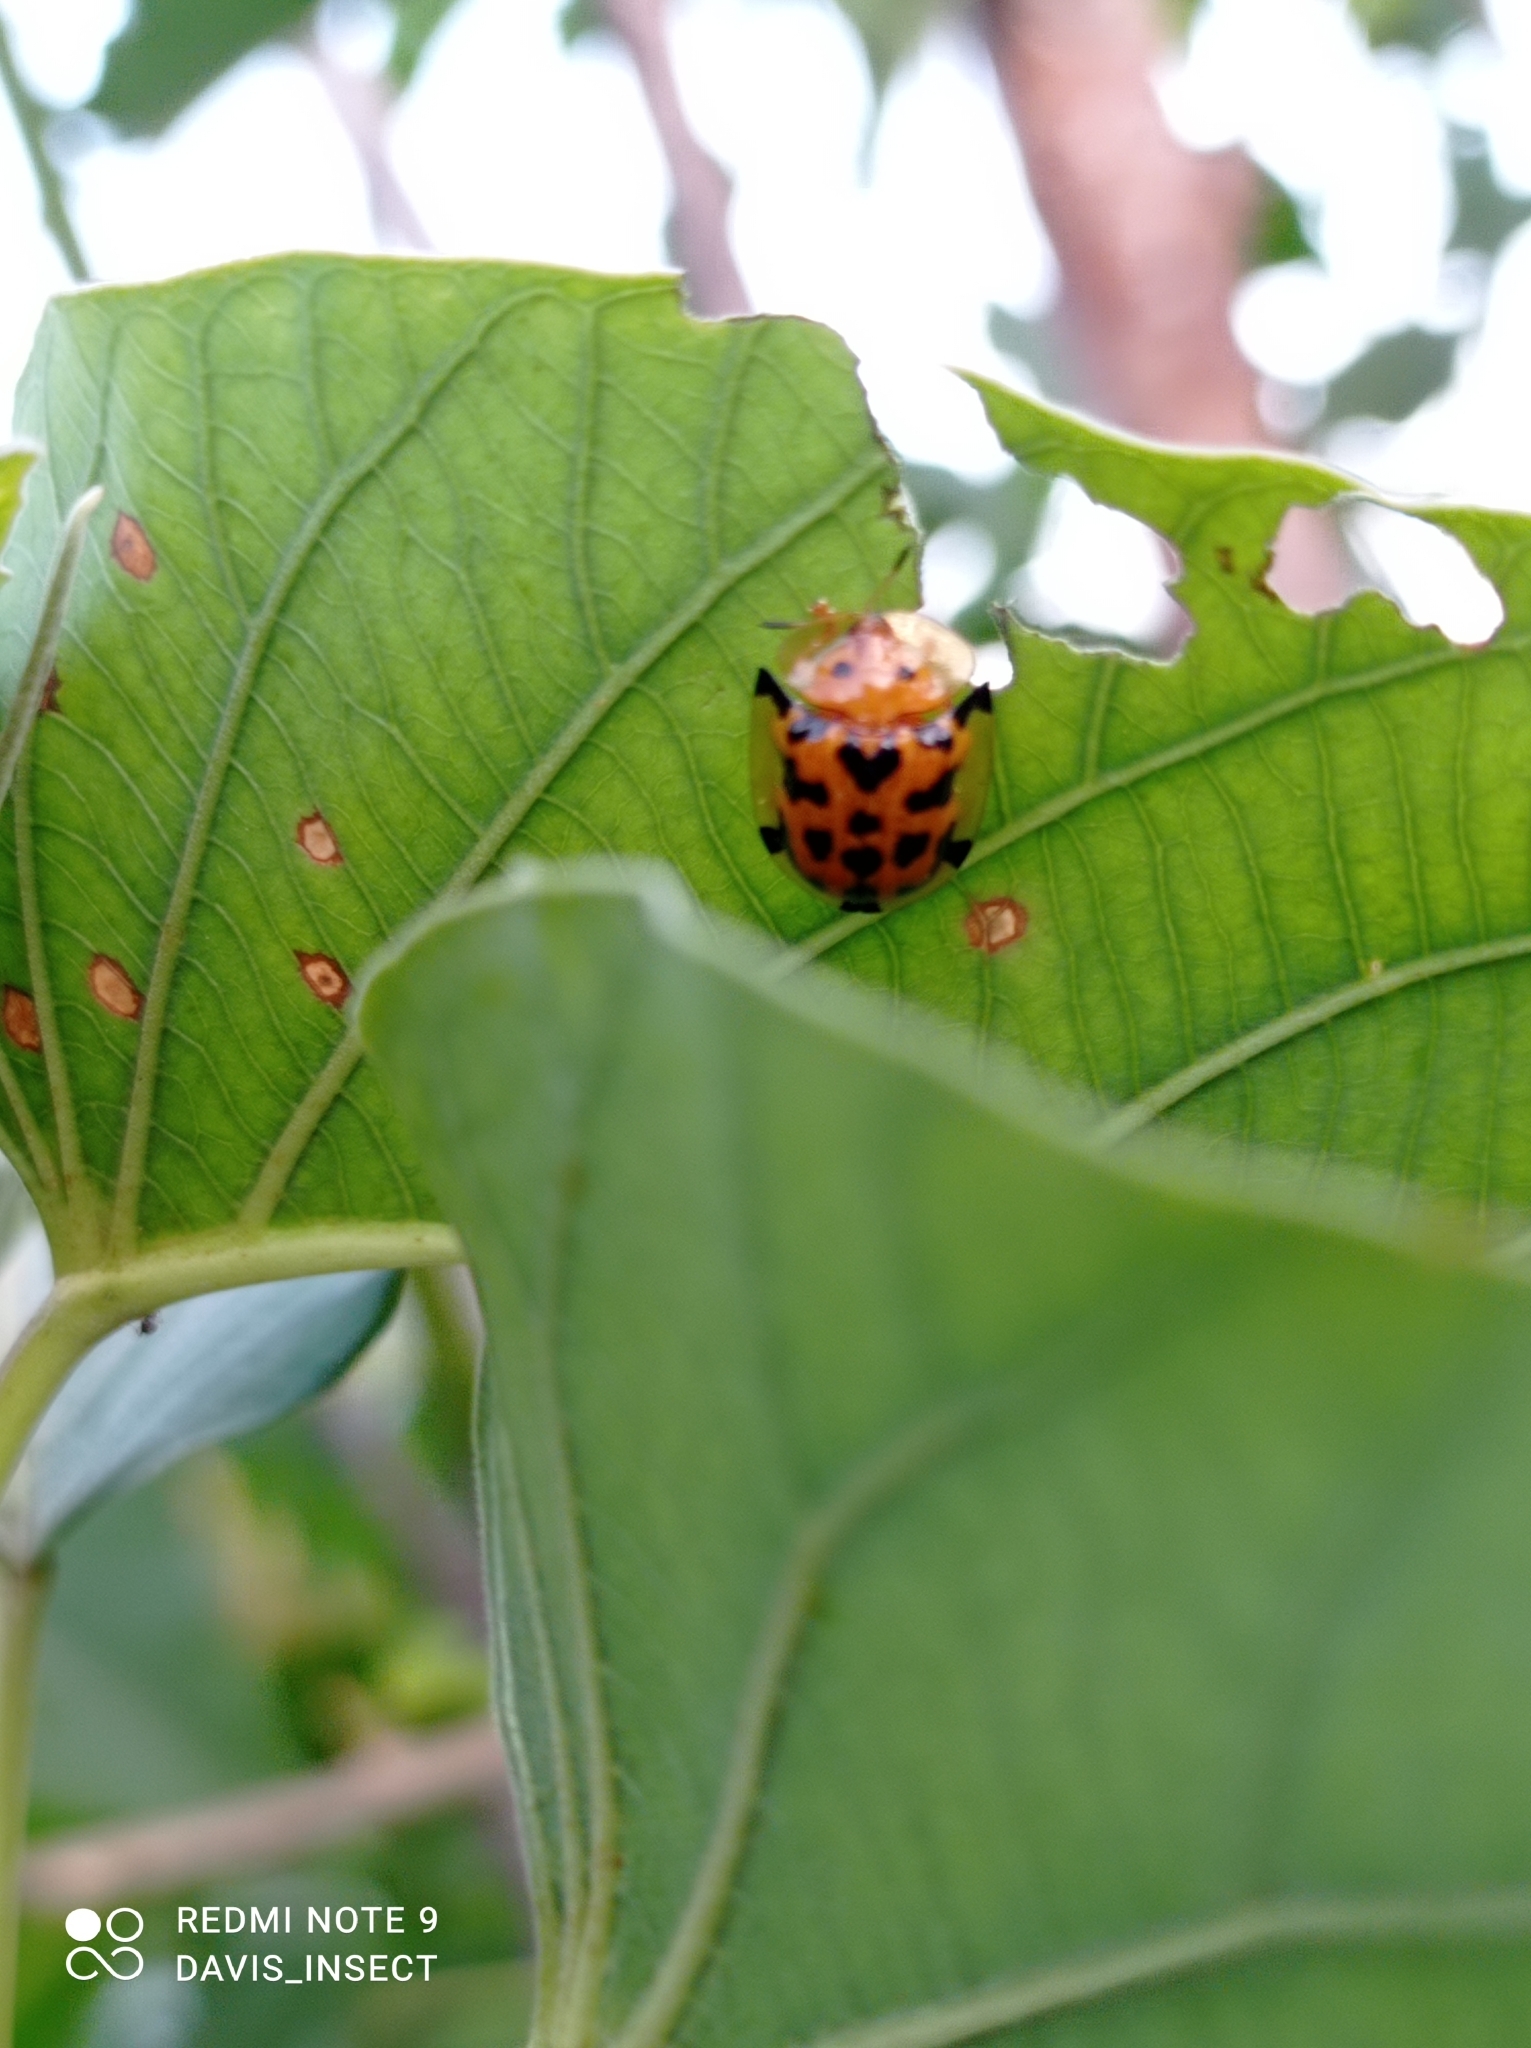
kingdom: Animalia
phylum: Arthropoda
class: Insecta
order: Coleoptera
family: Chrysomelidae
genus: Aspidimorpha
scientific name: Aspidimorpha deusta
